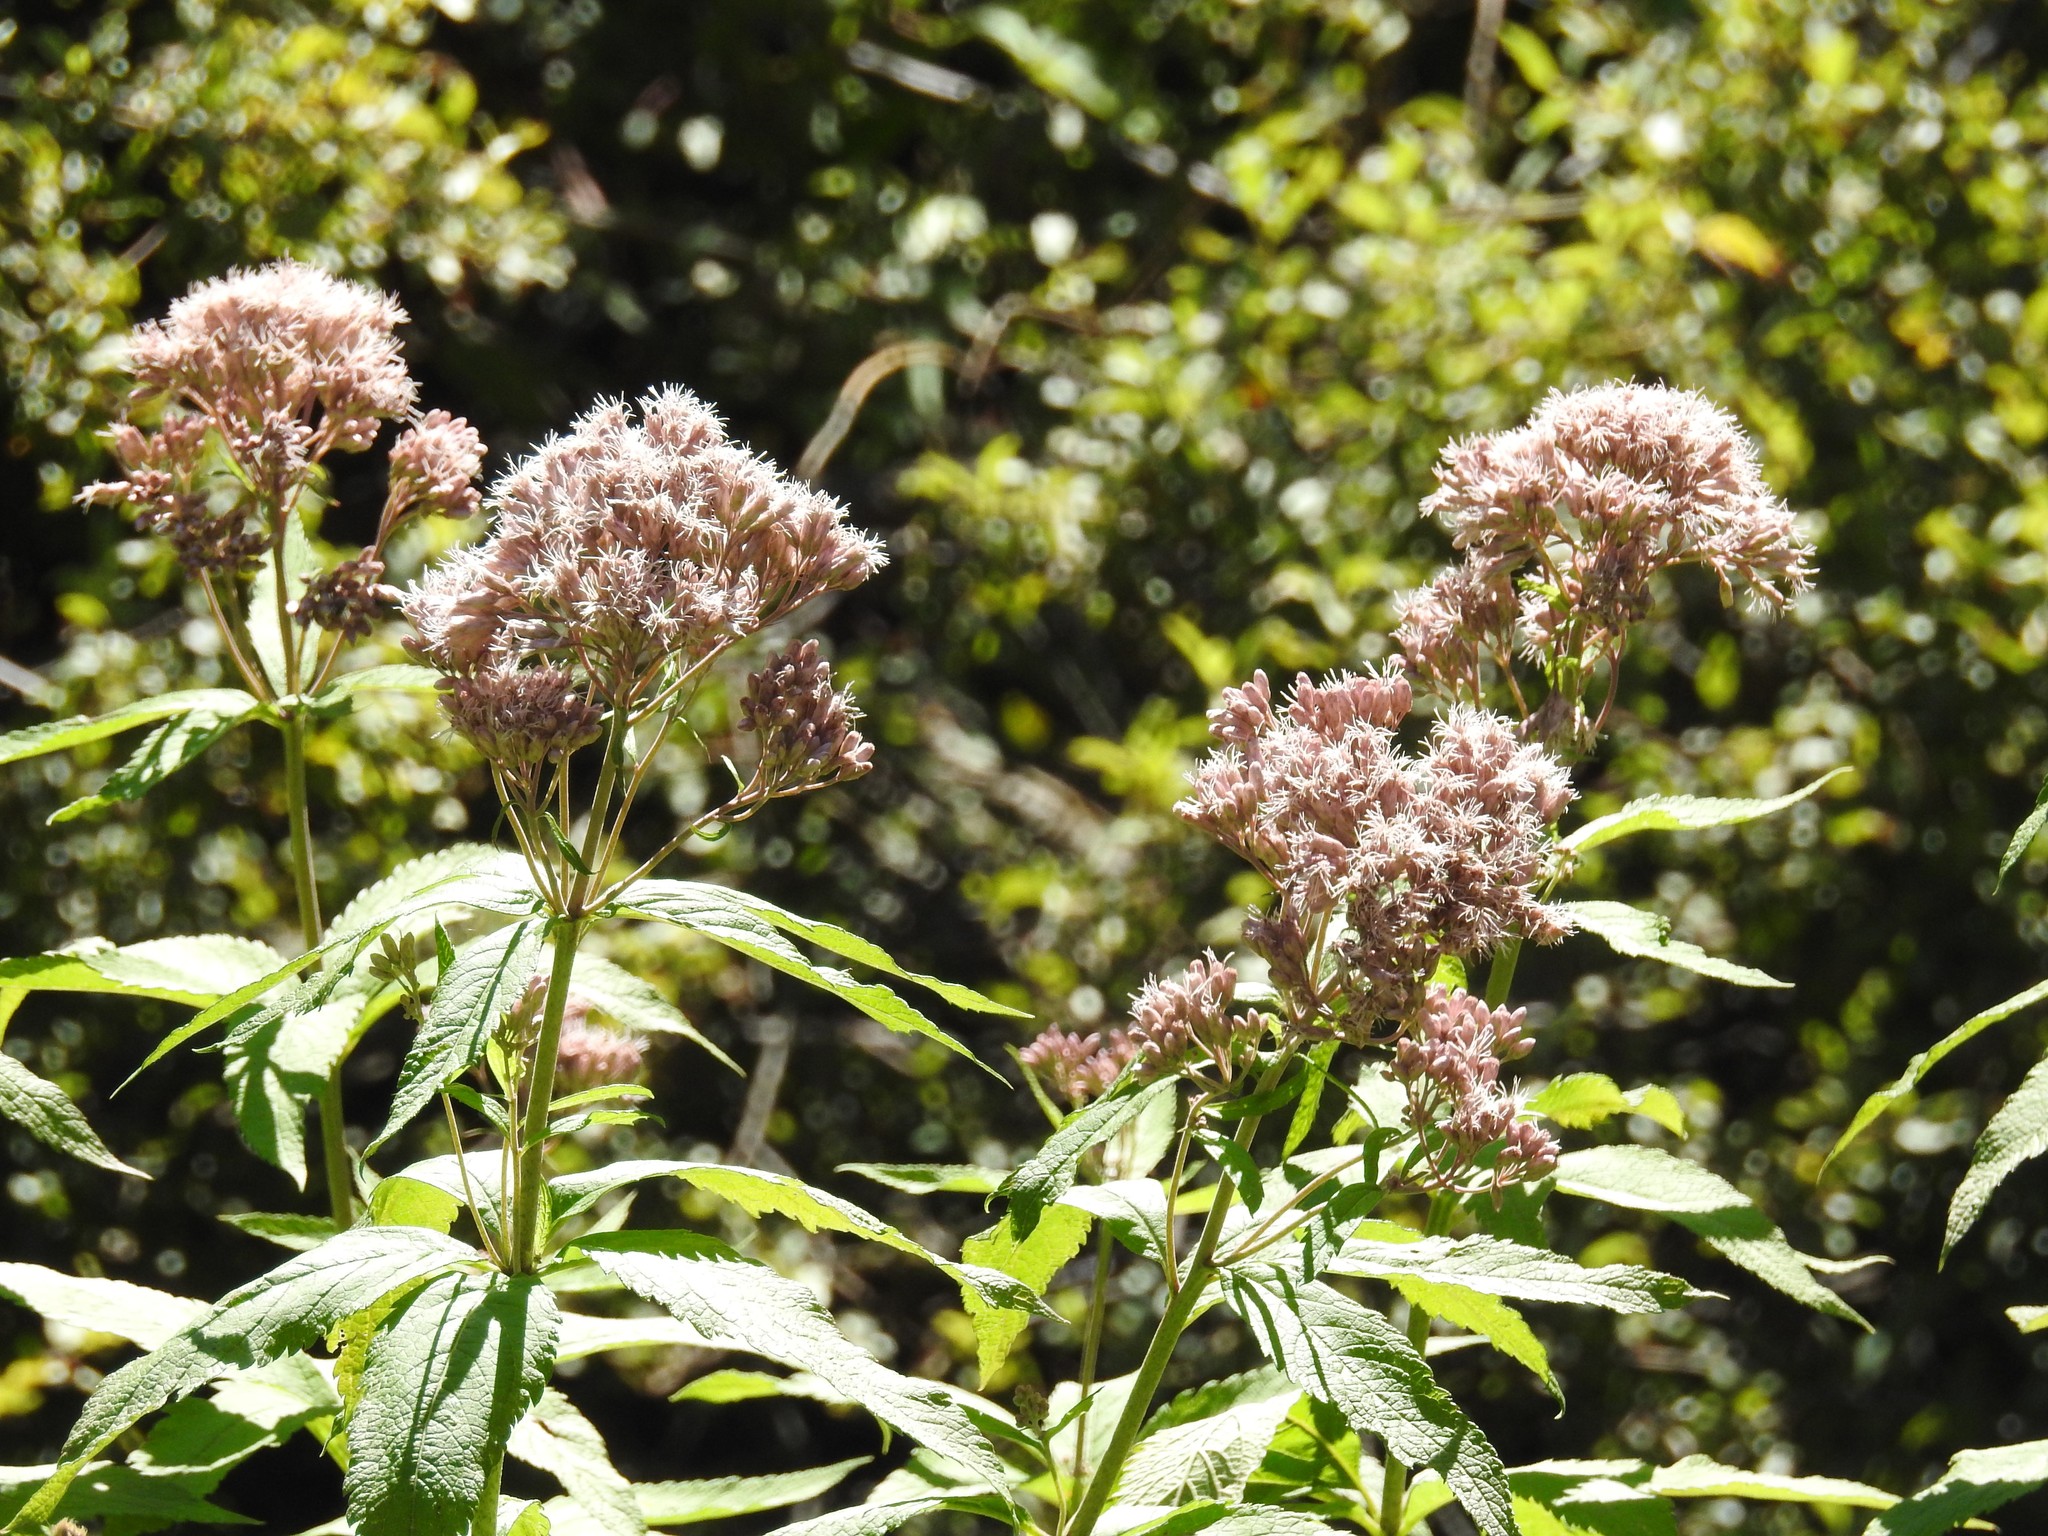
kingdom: Plantae
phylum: Tracheophyta
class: Magnoliopsida
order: Asterales
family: Asteraceae
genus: Eutrochium
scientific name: Eutrochium maculatum
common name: Spotted joe pye weed
